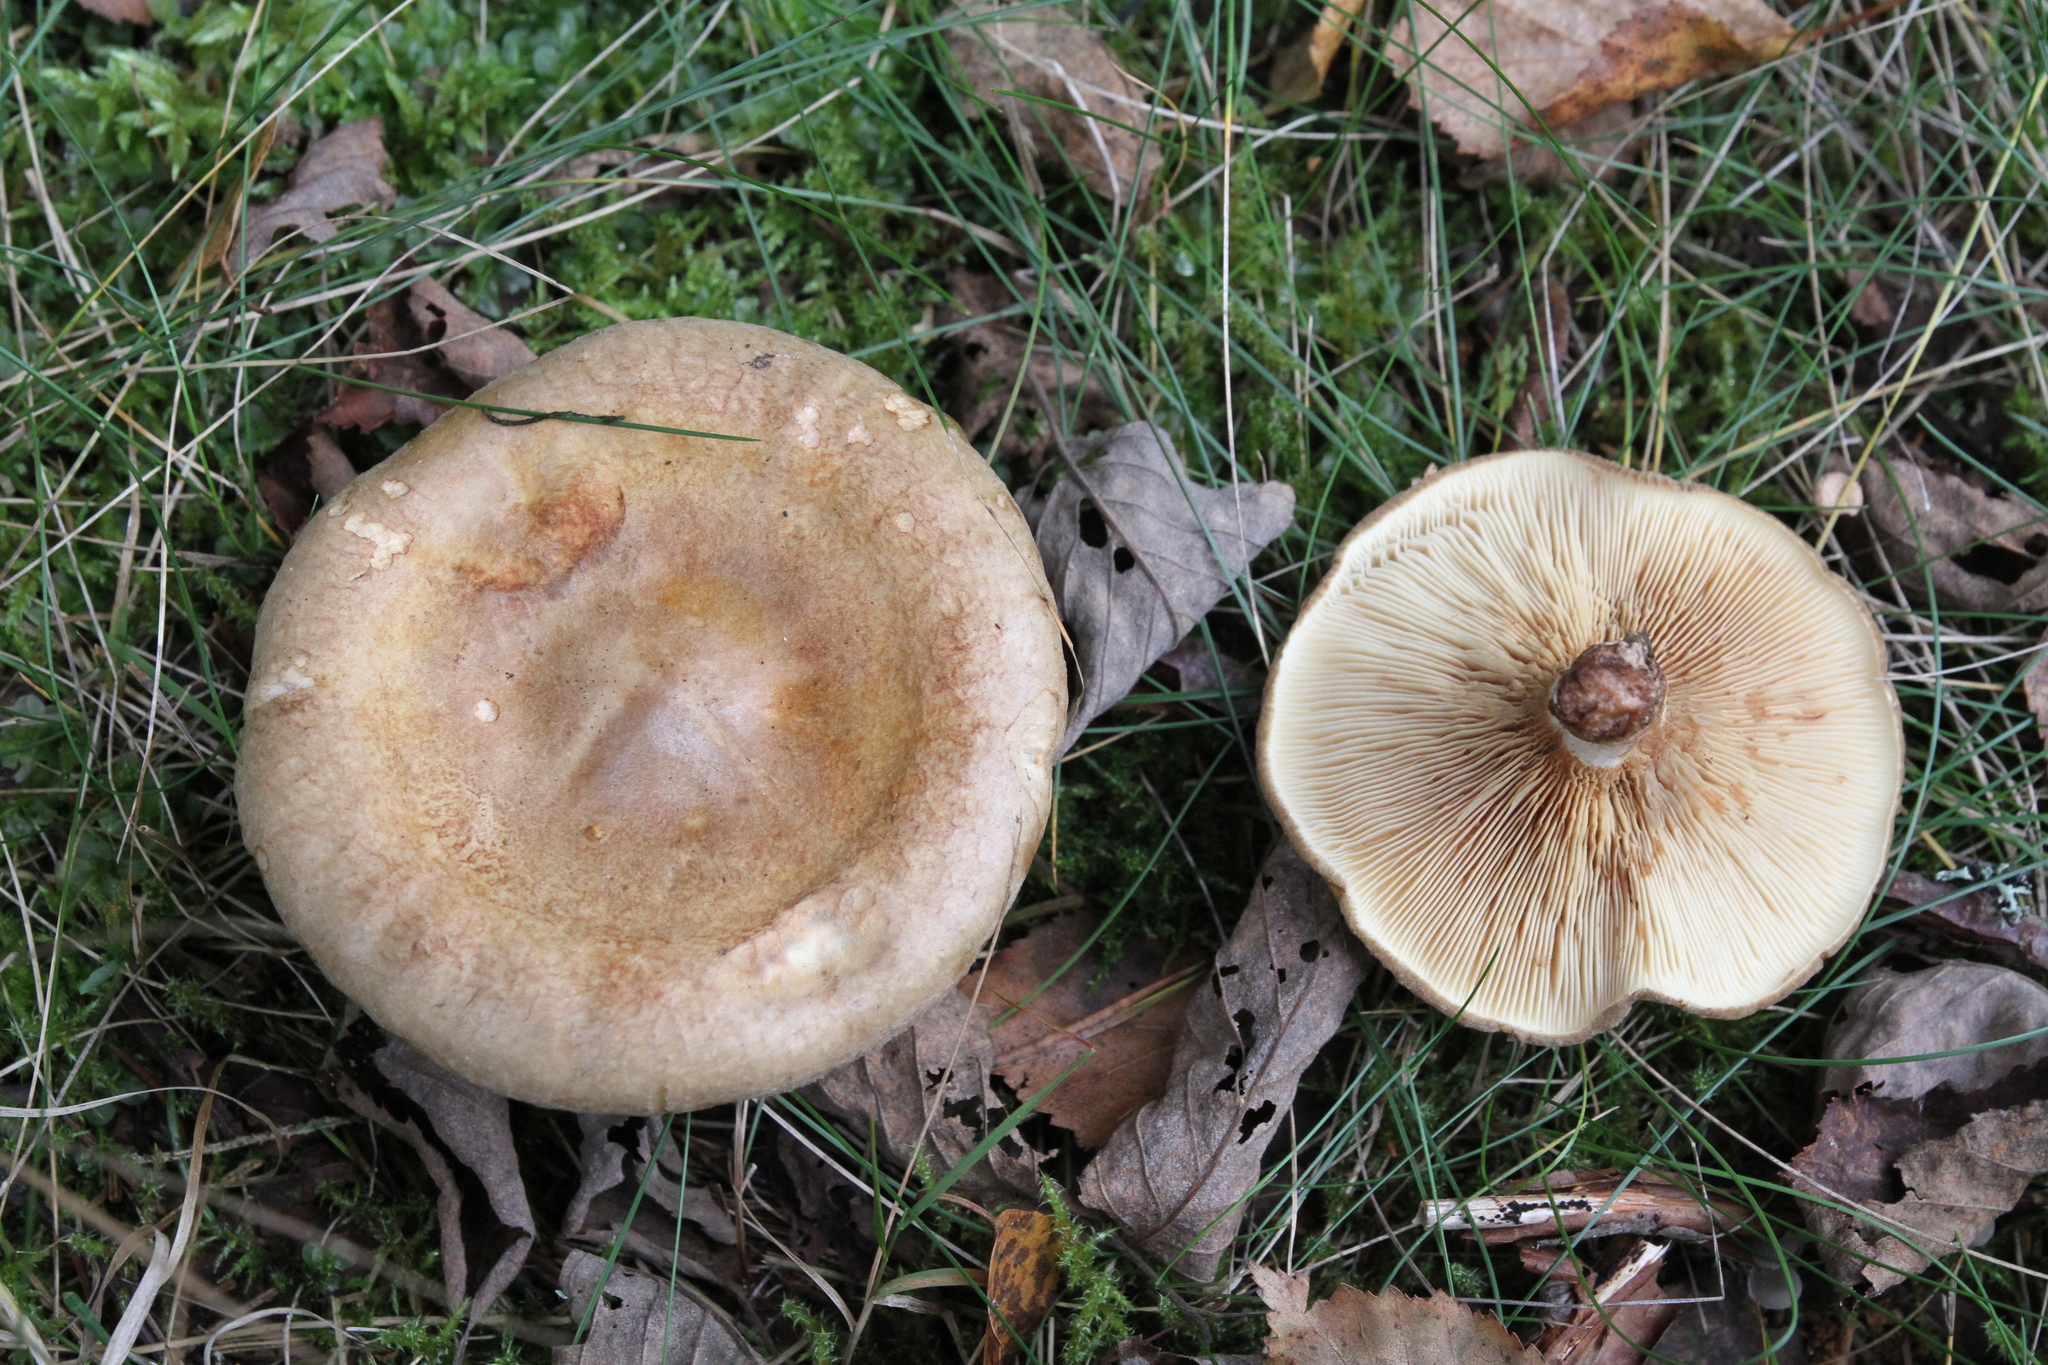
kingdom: Fungi
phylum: Basidiomycota
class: Agaricomycetes
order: Boletales
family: Paxillaceae
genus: Paxillus
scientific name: Paxillus involutus
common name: Brown roll rim
